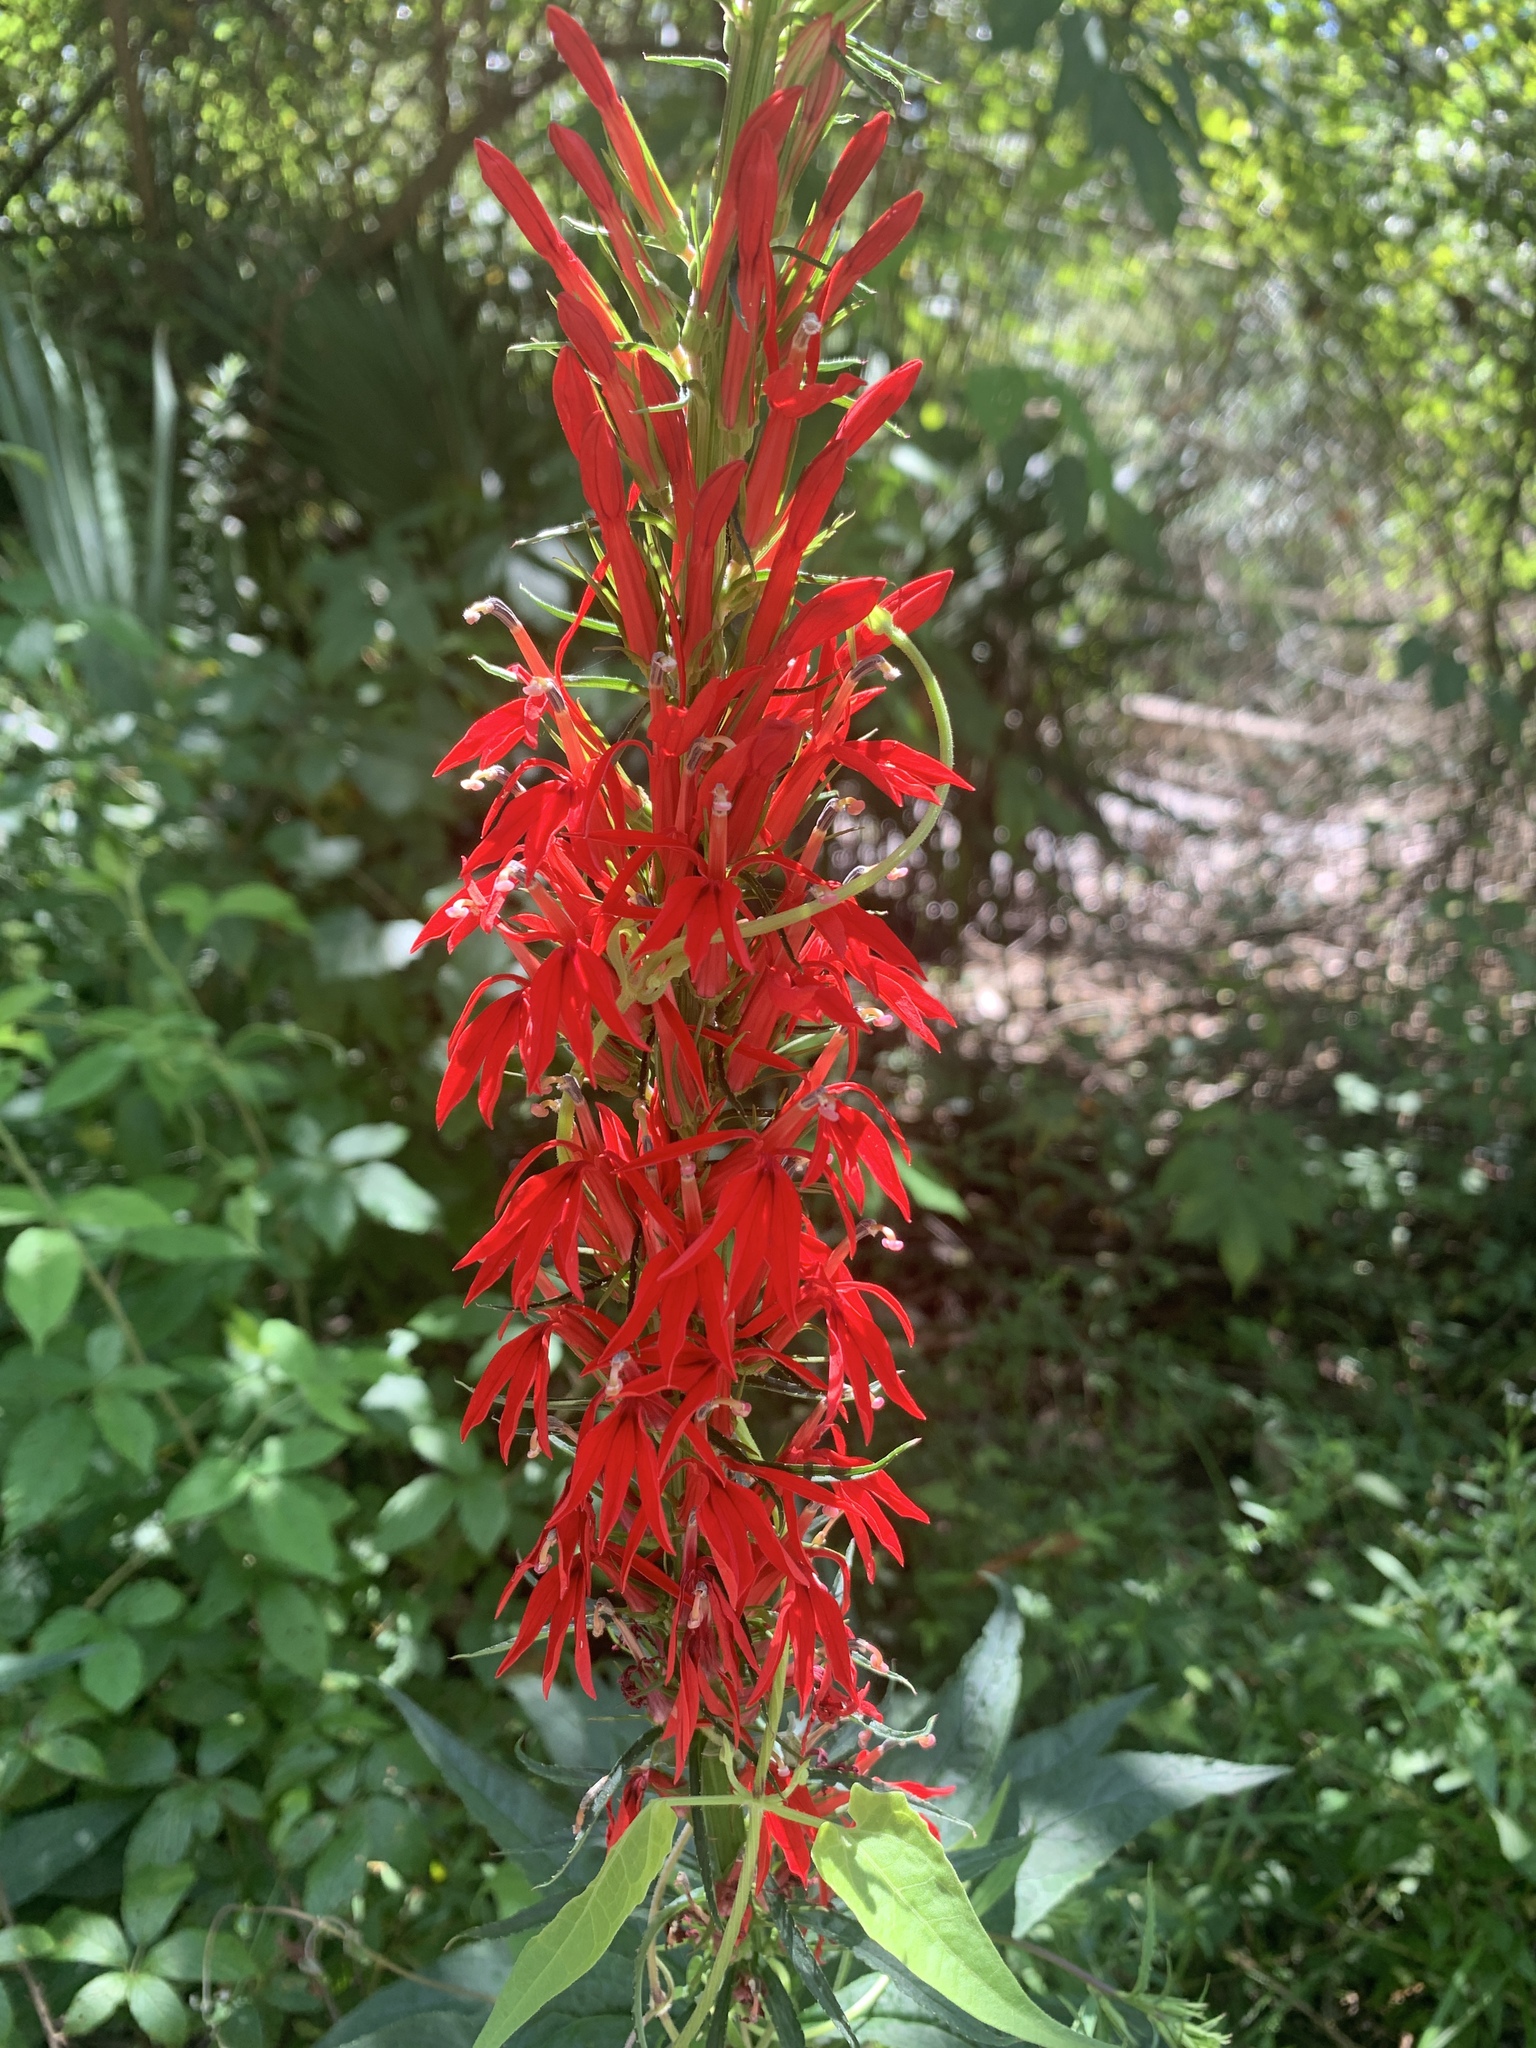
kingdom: Plantae
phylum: Tracheophyta
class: Magnoliopsida
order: Asterales
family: Campanulaceae
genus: Lobelia
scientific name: Lobelia cardinalis
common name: Cardinal flower
